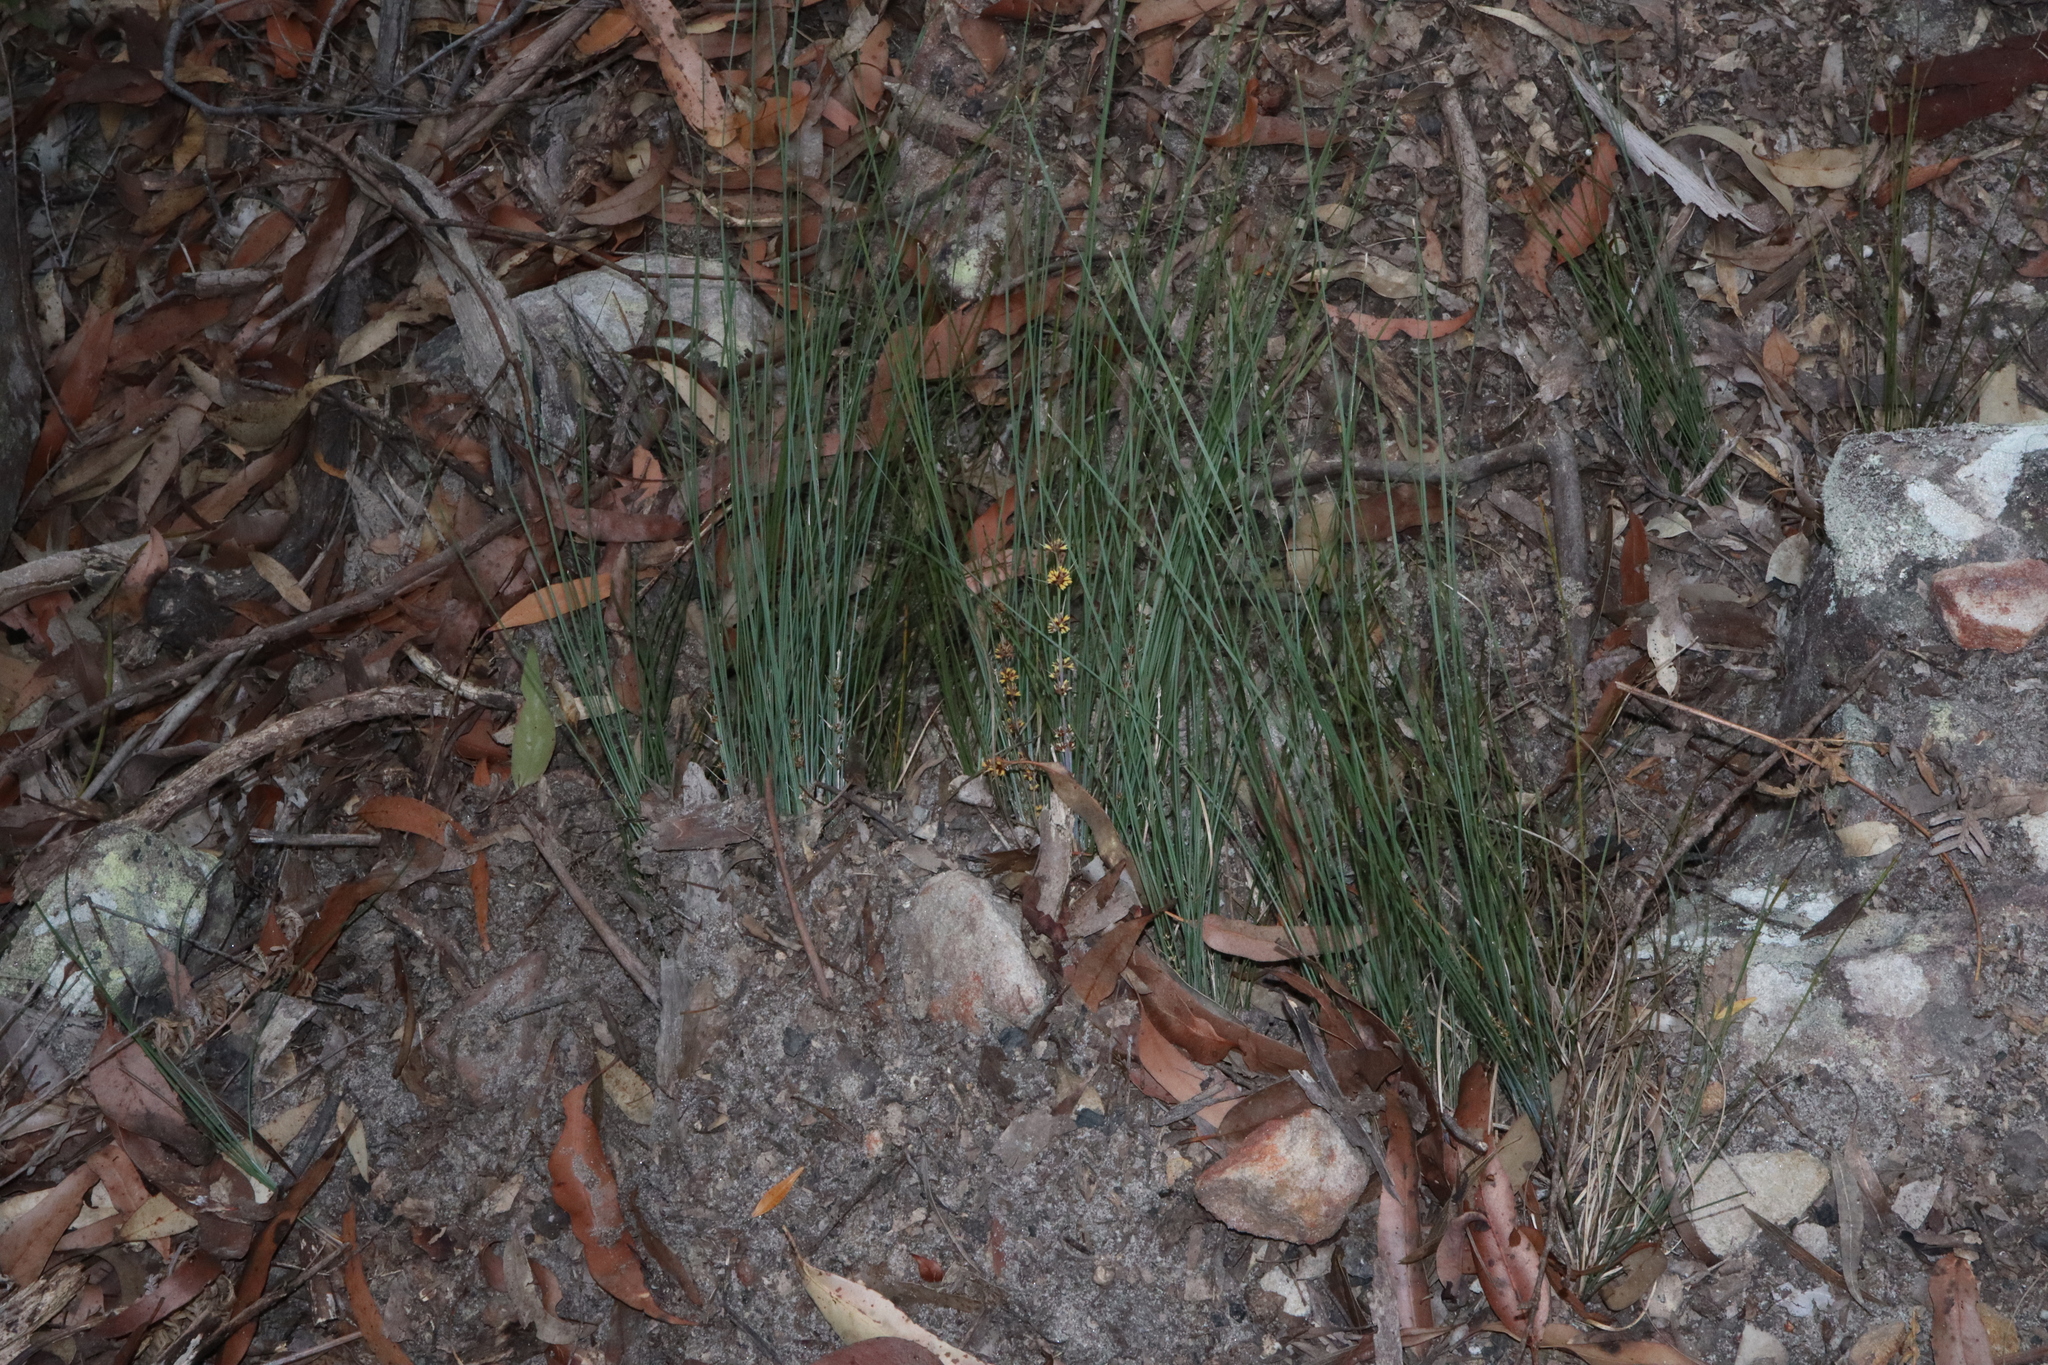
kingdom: Plantae
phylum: Tracheophyta
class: Liliopsida
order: Asparagales
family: Asparagaceae
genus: Lomandra
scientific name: Lomandra confertifolia
